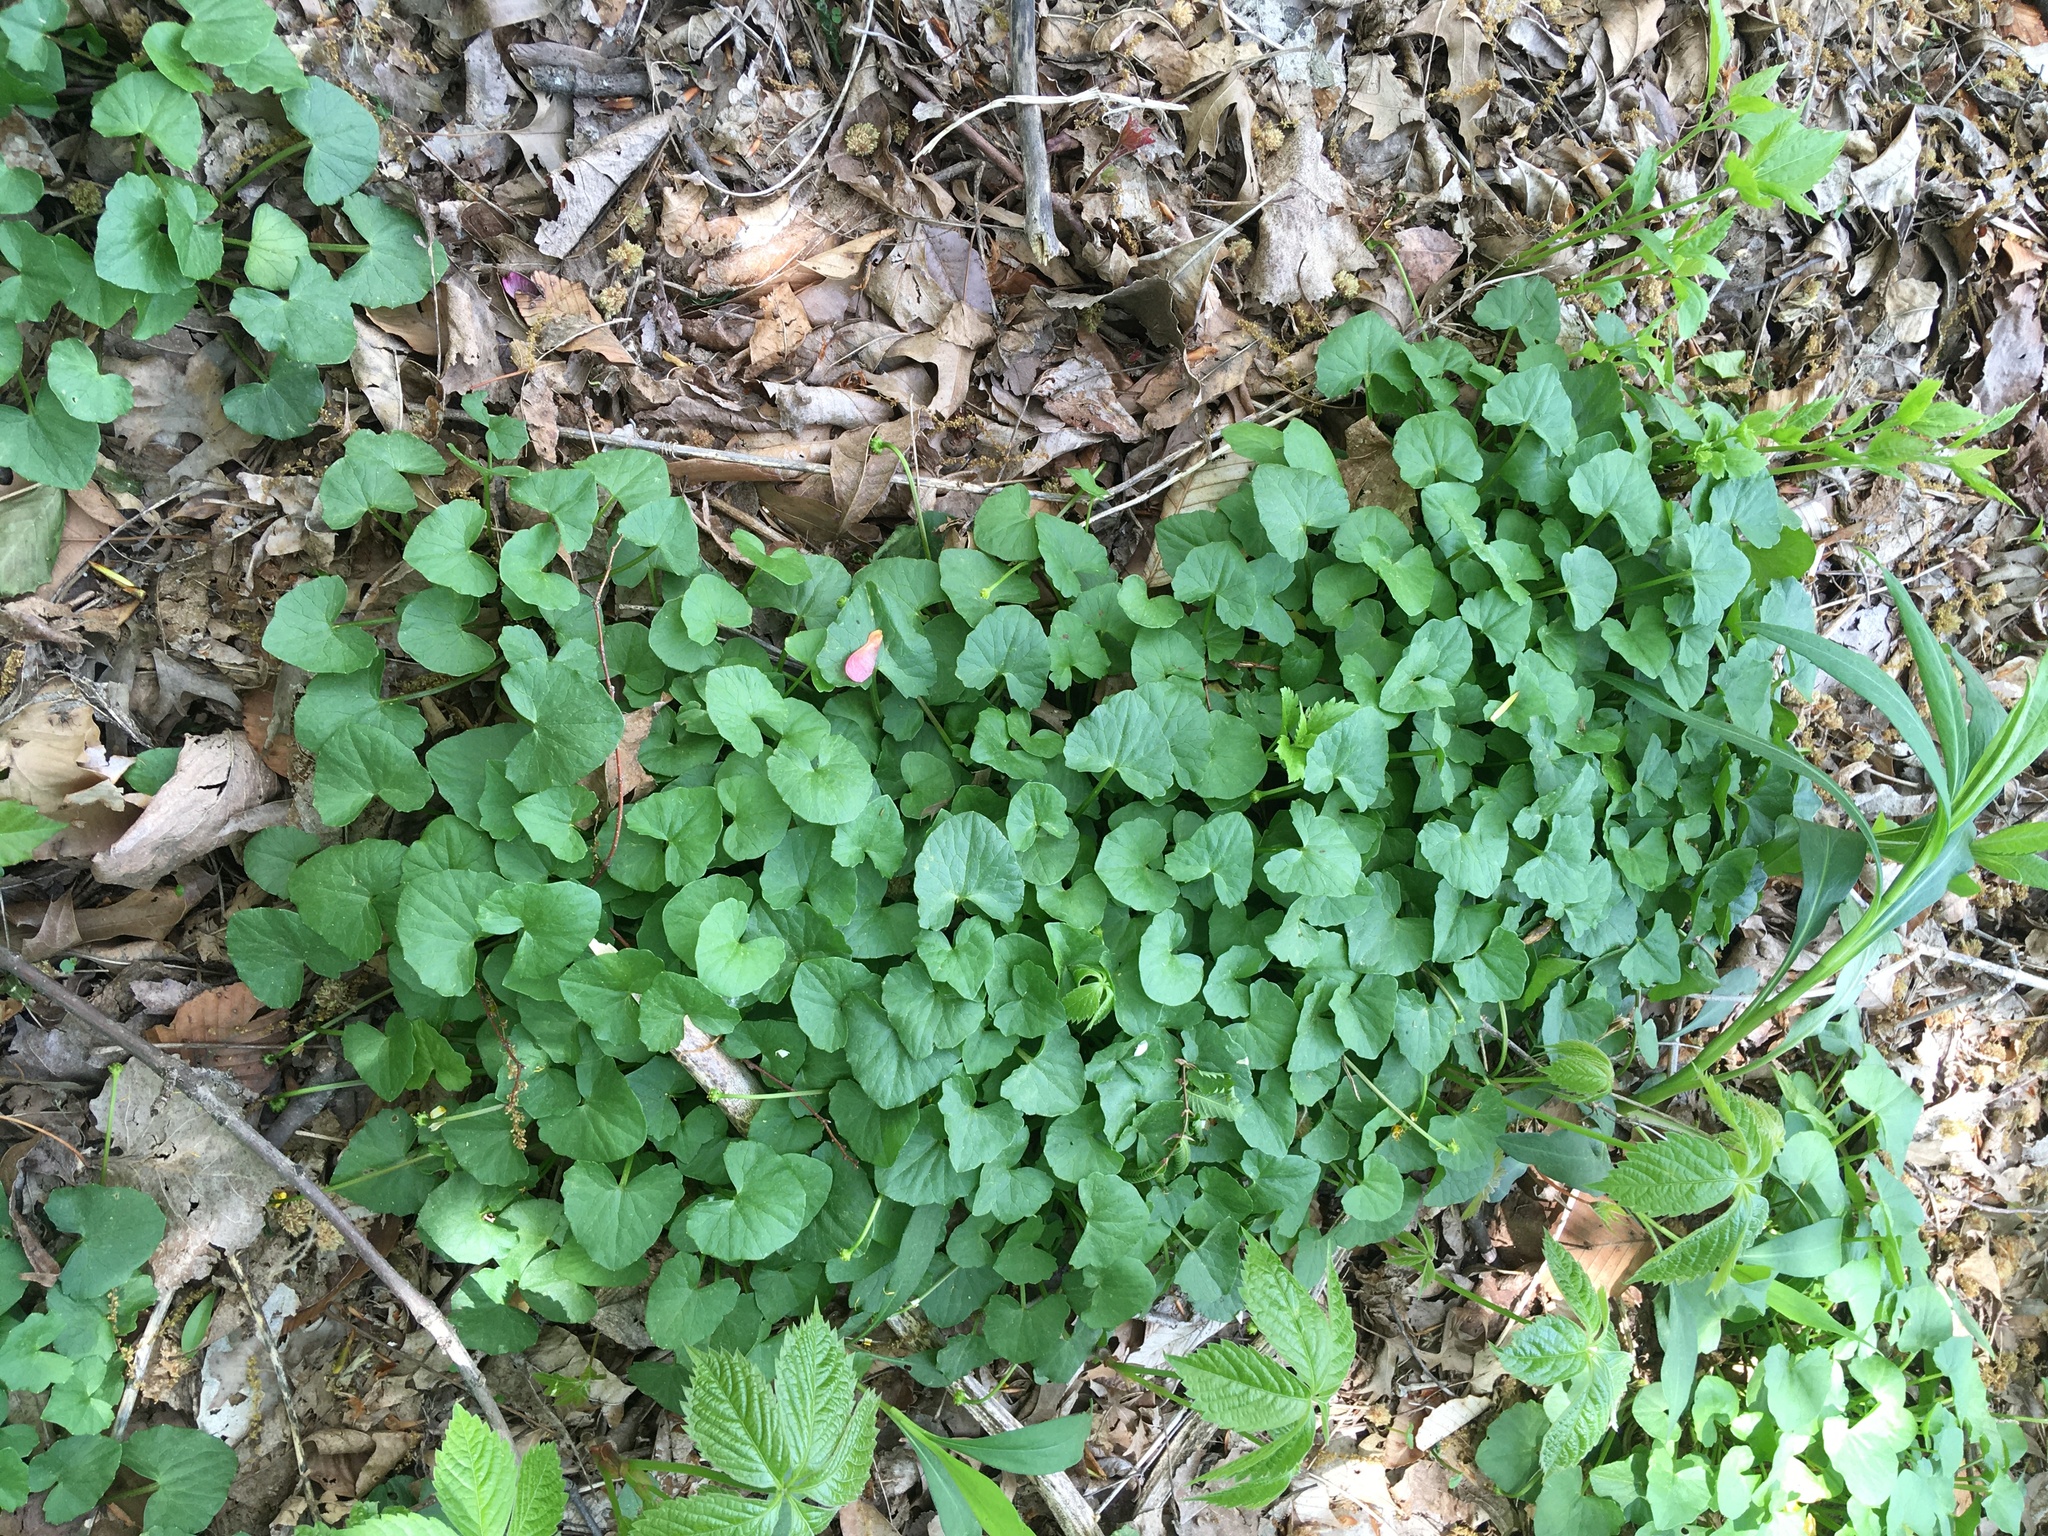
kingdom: Plantae
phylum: Tracheophyta
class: Magnoliopsida
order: Ranunculales
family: Ranunculaceae
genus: Ficaria
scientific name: Ficaria verna
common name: Lesser celandine
